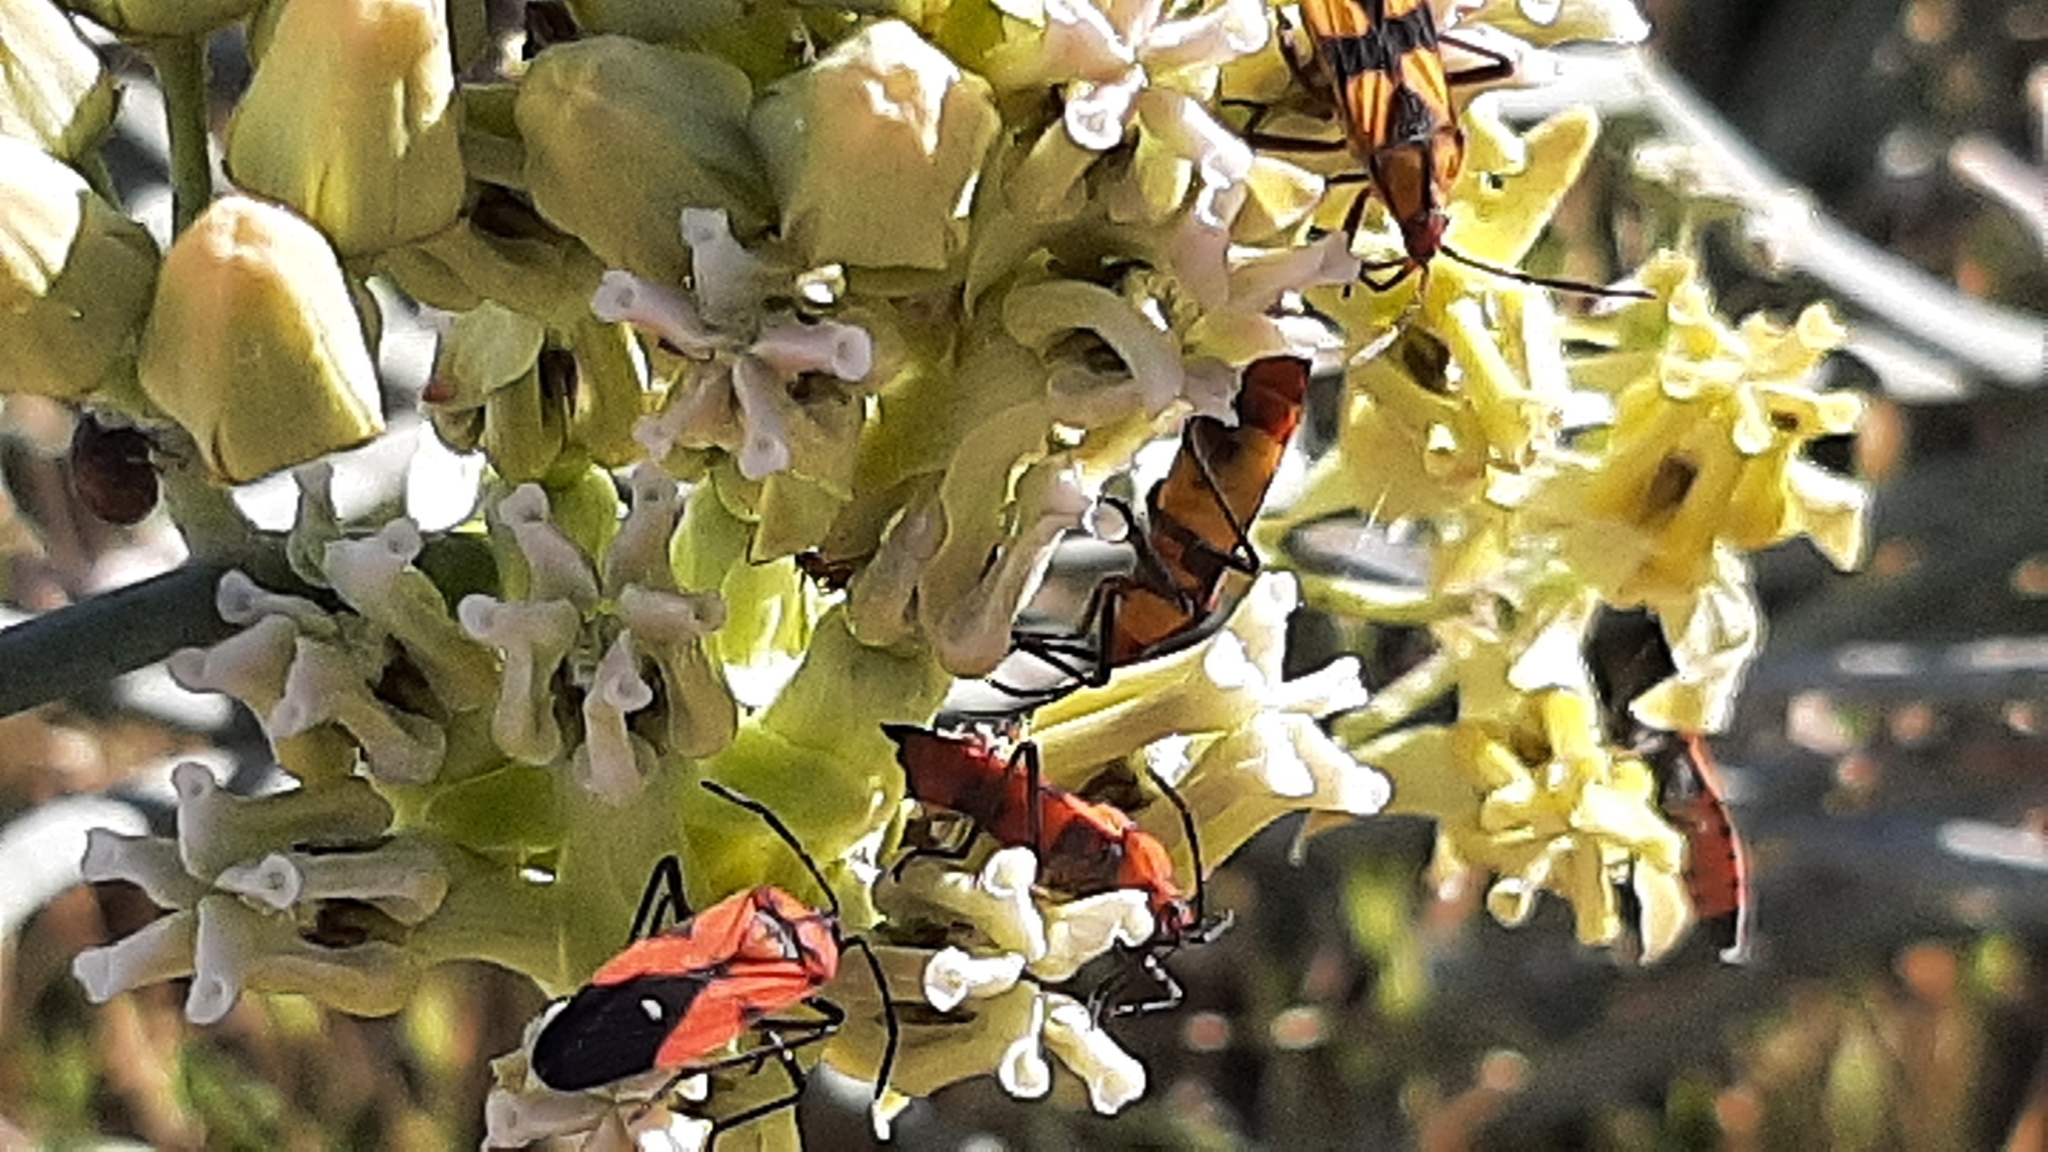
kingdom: Animalia
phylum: Arthropoda
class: Insecta
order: Hemiptera
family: Lygaeidae
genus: Oncopeltus
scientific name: Oncopeltus sanguinolentus
